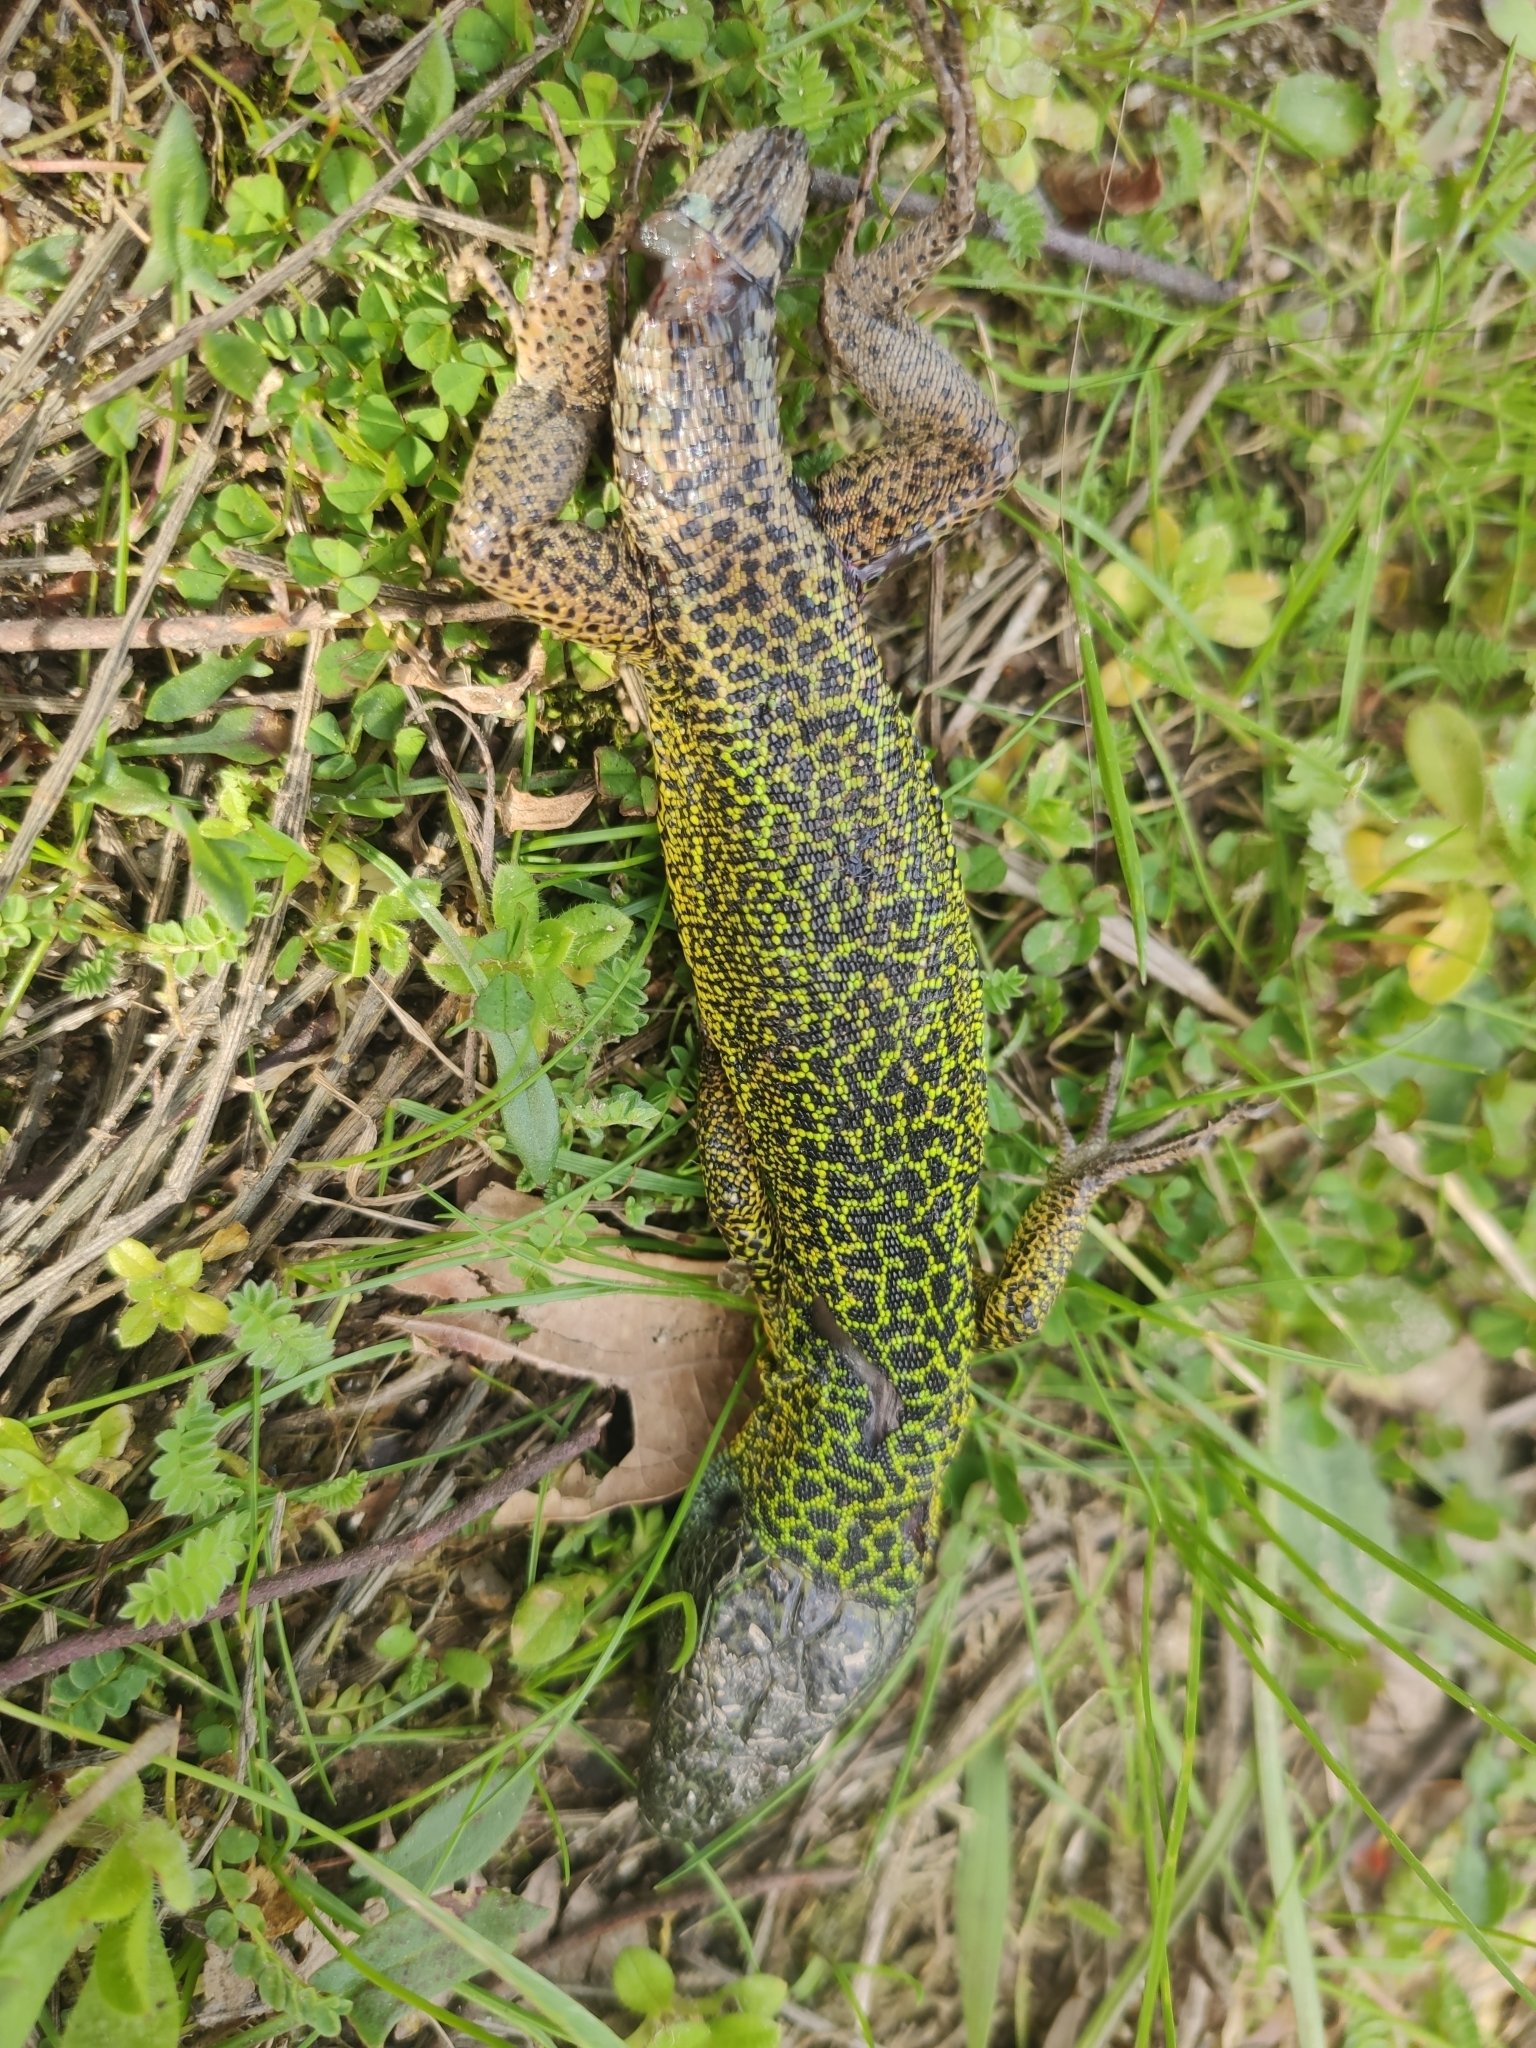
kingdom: Animalia
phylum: Chordata
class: Squamata
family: Lacertidae
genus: Lacerta
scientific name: Lacerta schreiberi
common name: Iberian emerald lizard
